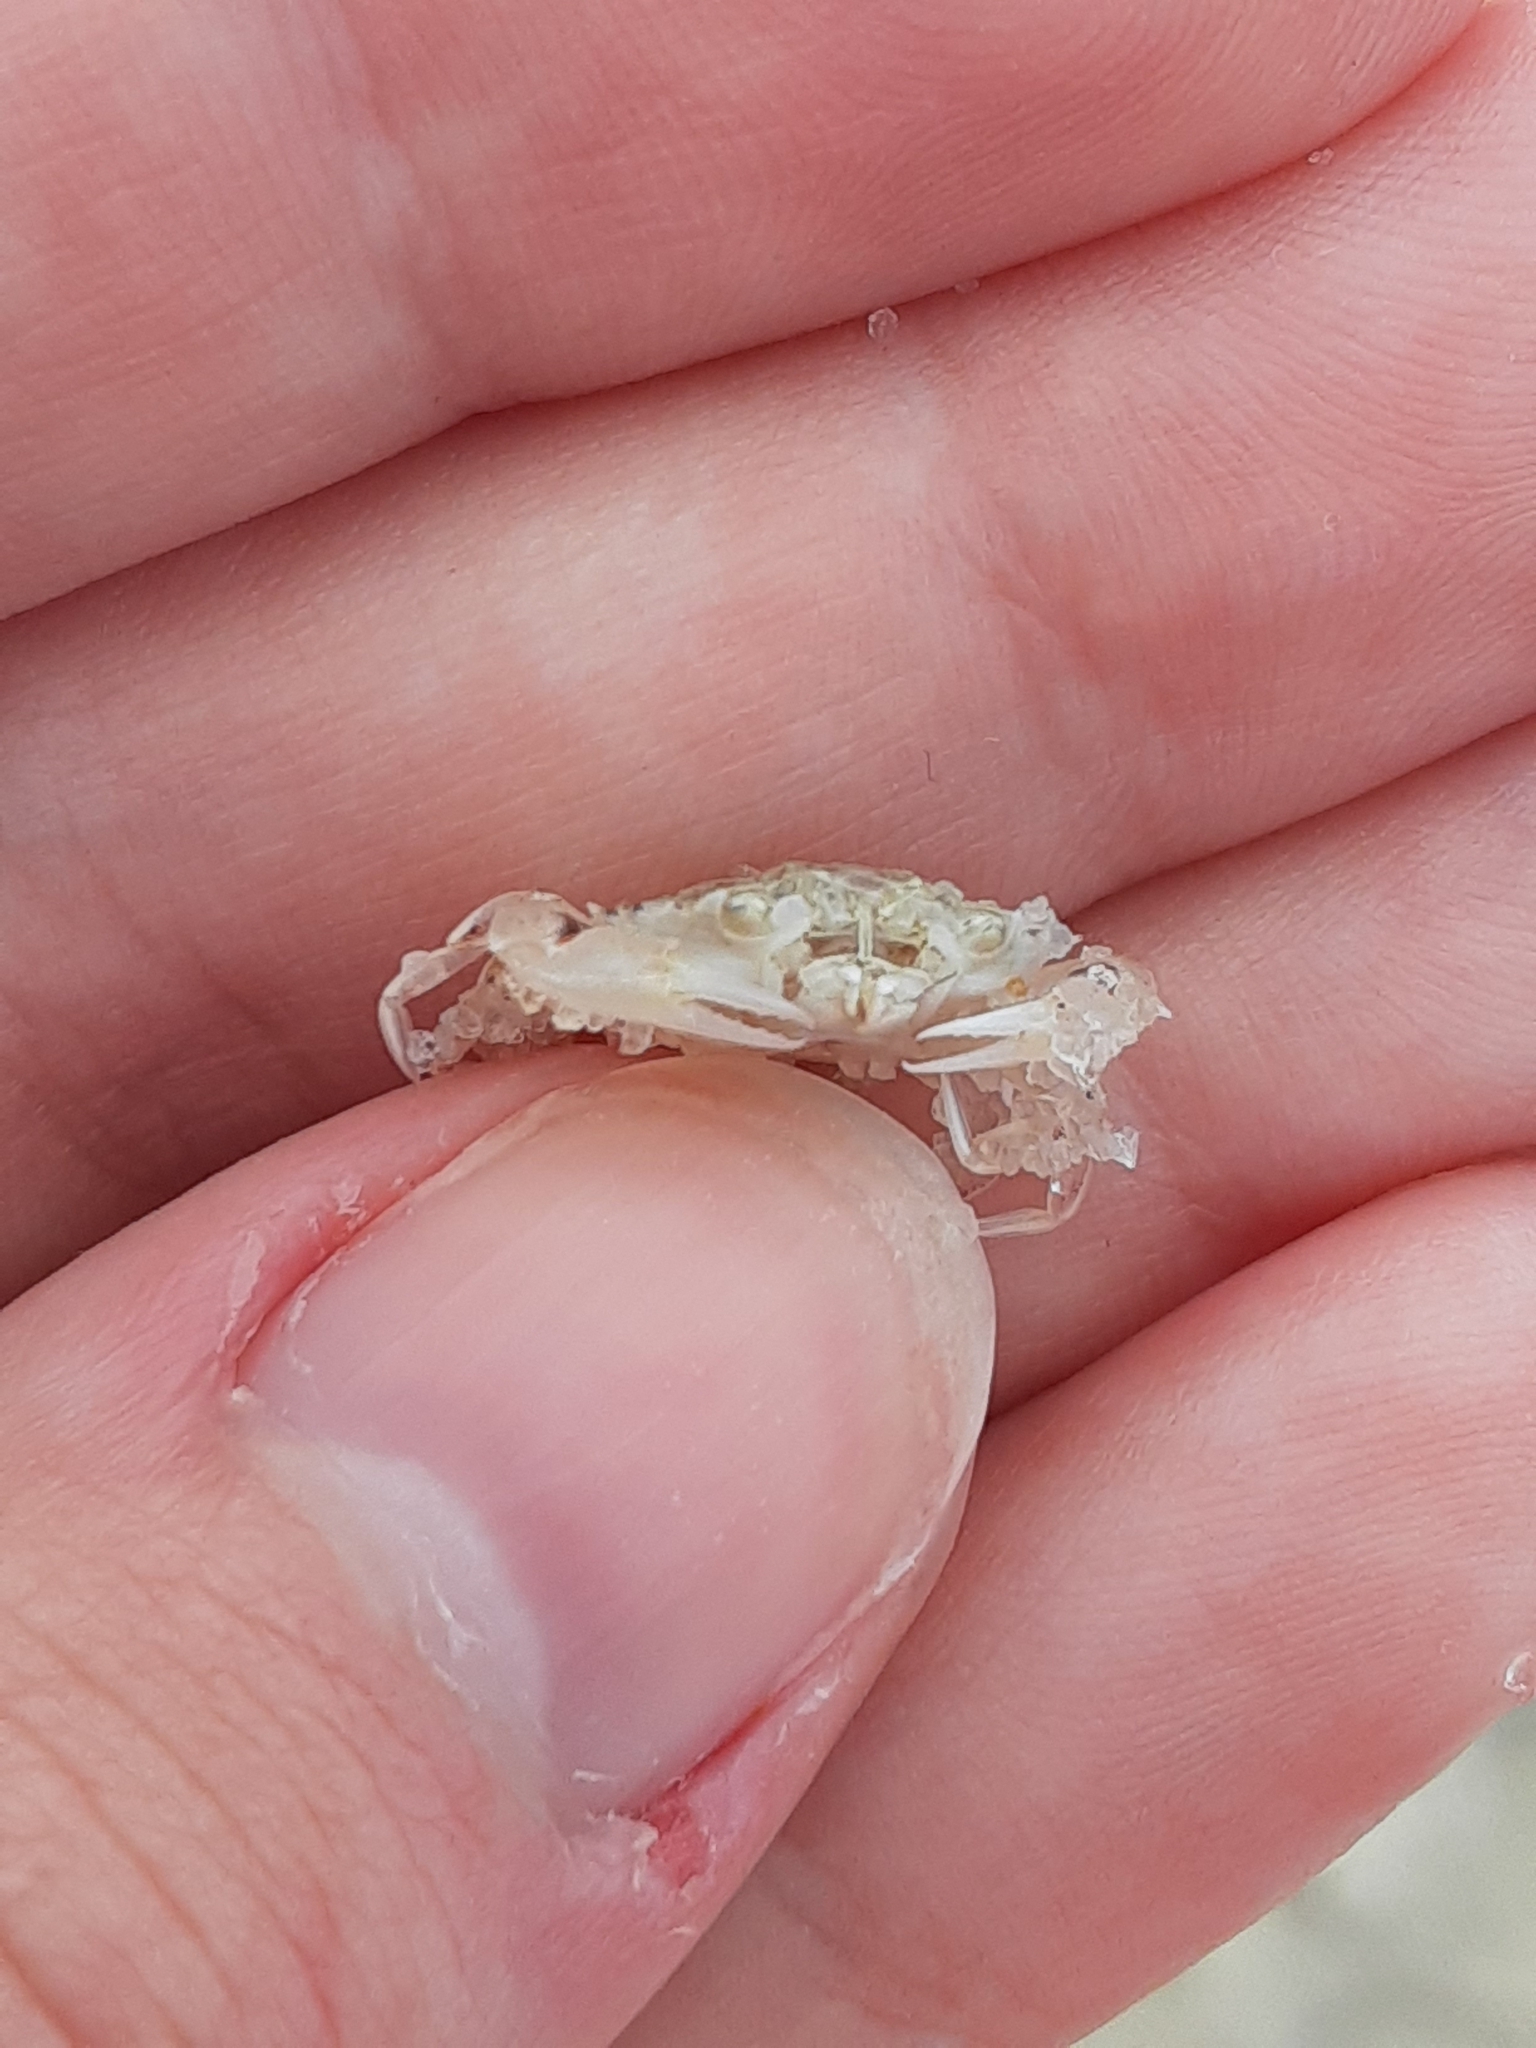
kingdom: Animalia
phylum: Arthropoda
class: Malacostraca
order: Decapoda
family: Ovalipidae
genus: Ovalipes
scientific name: Ovalipes ocellatus
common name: Lady crab
